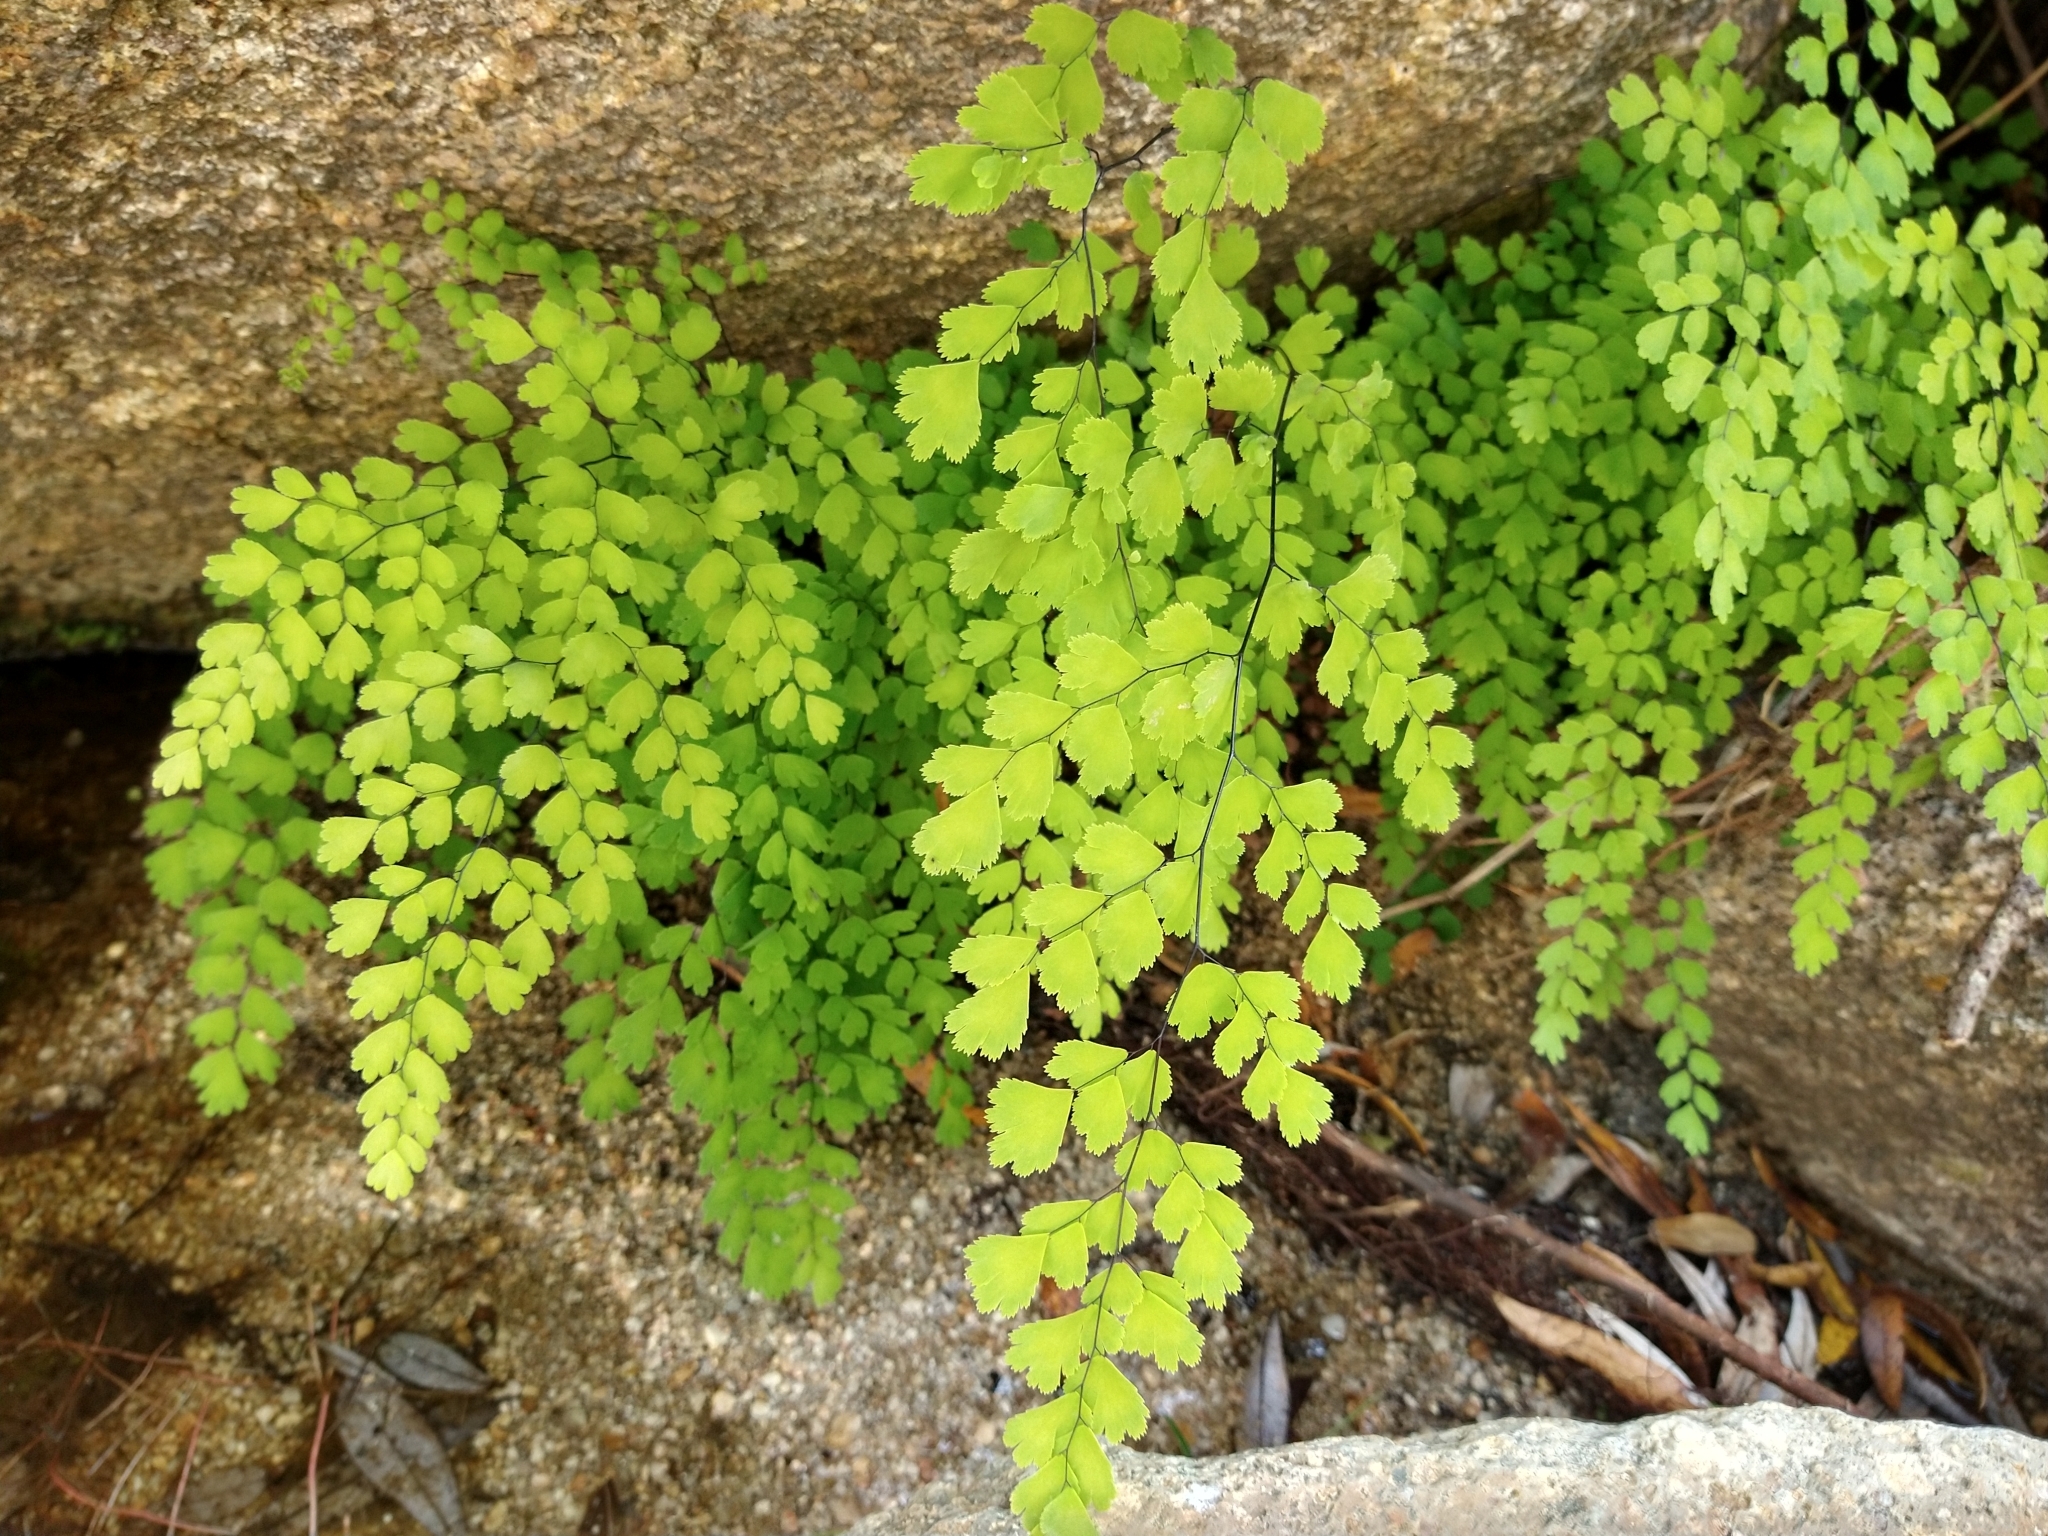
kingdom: Plantae
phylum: Tracheophyta
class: Polypodiopsida
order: Polypodiales
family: Pteridaceae
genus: Adiantum
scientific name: Adiantum capillus-veneris
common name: Maidenhair fern
